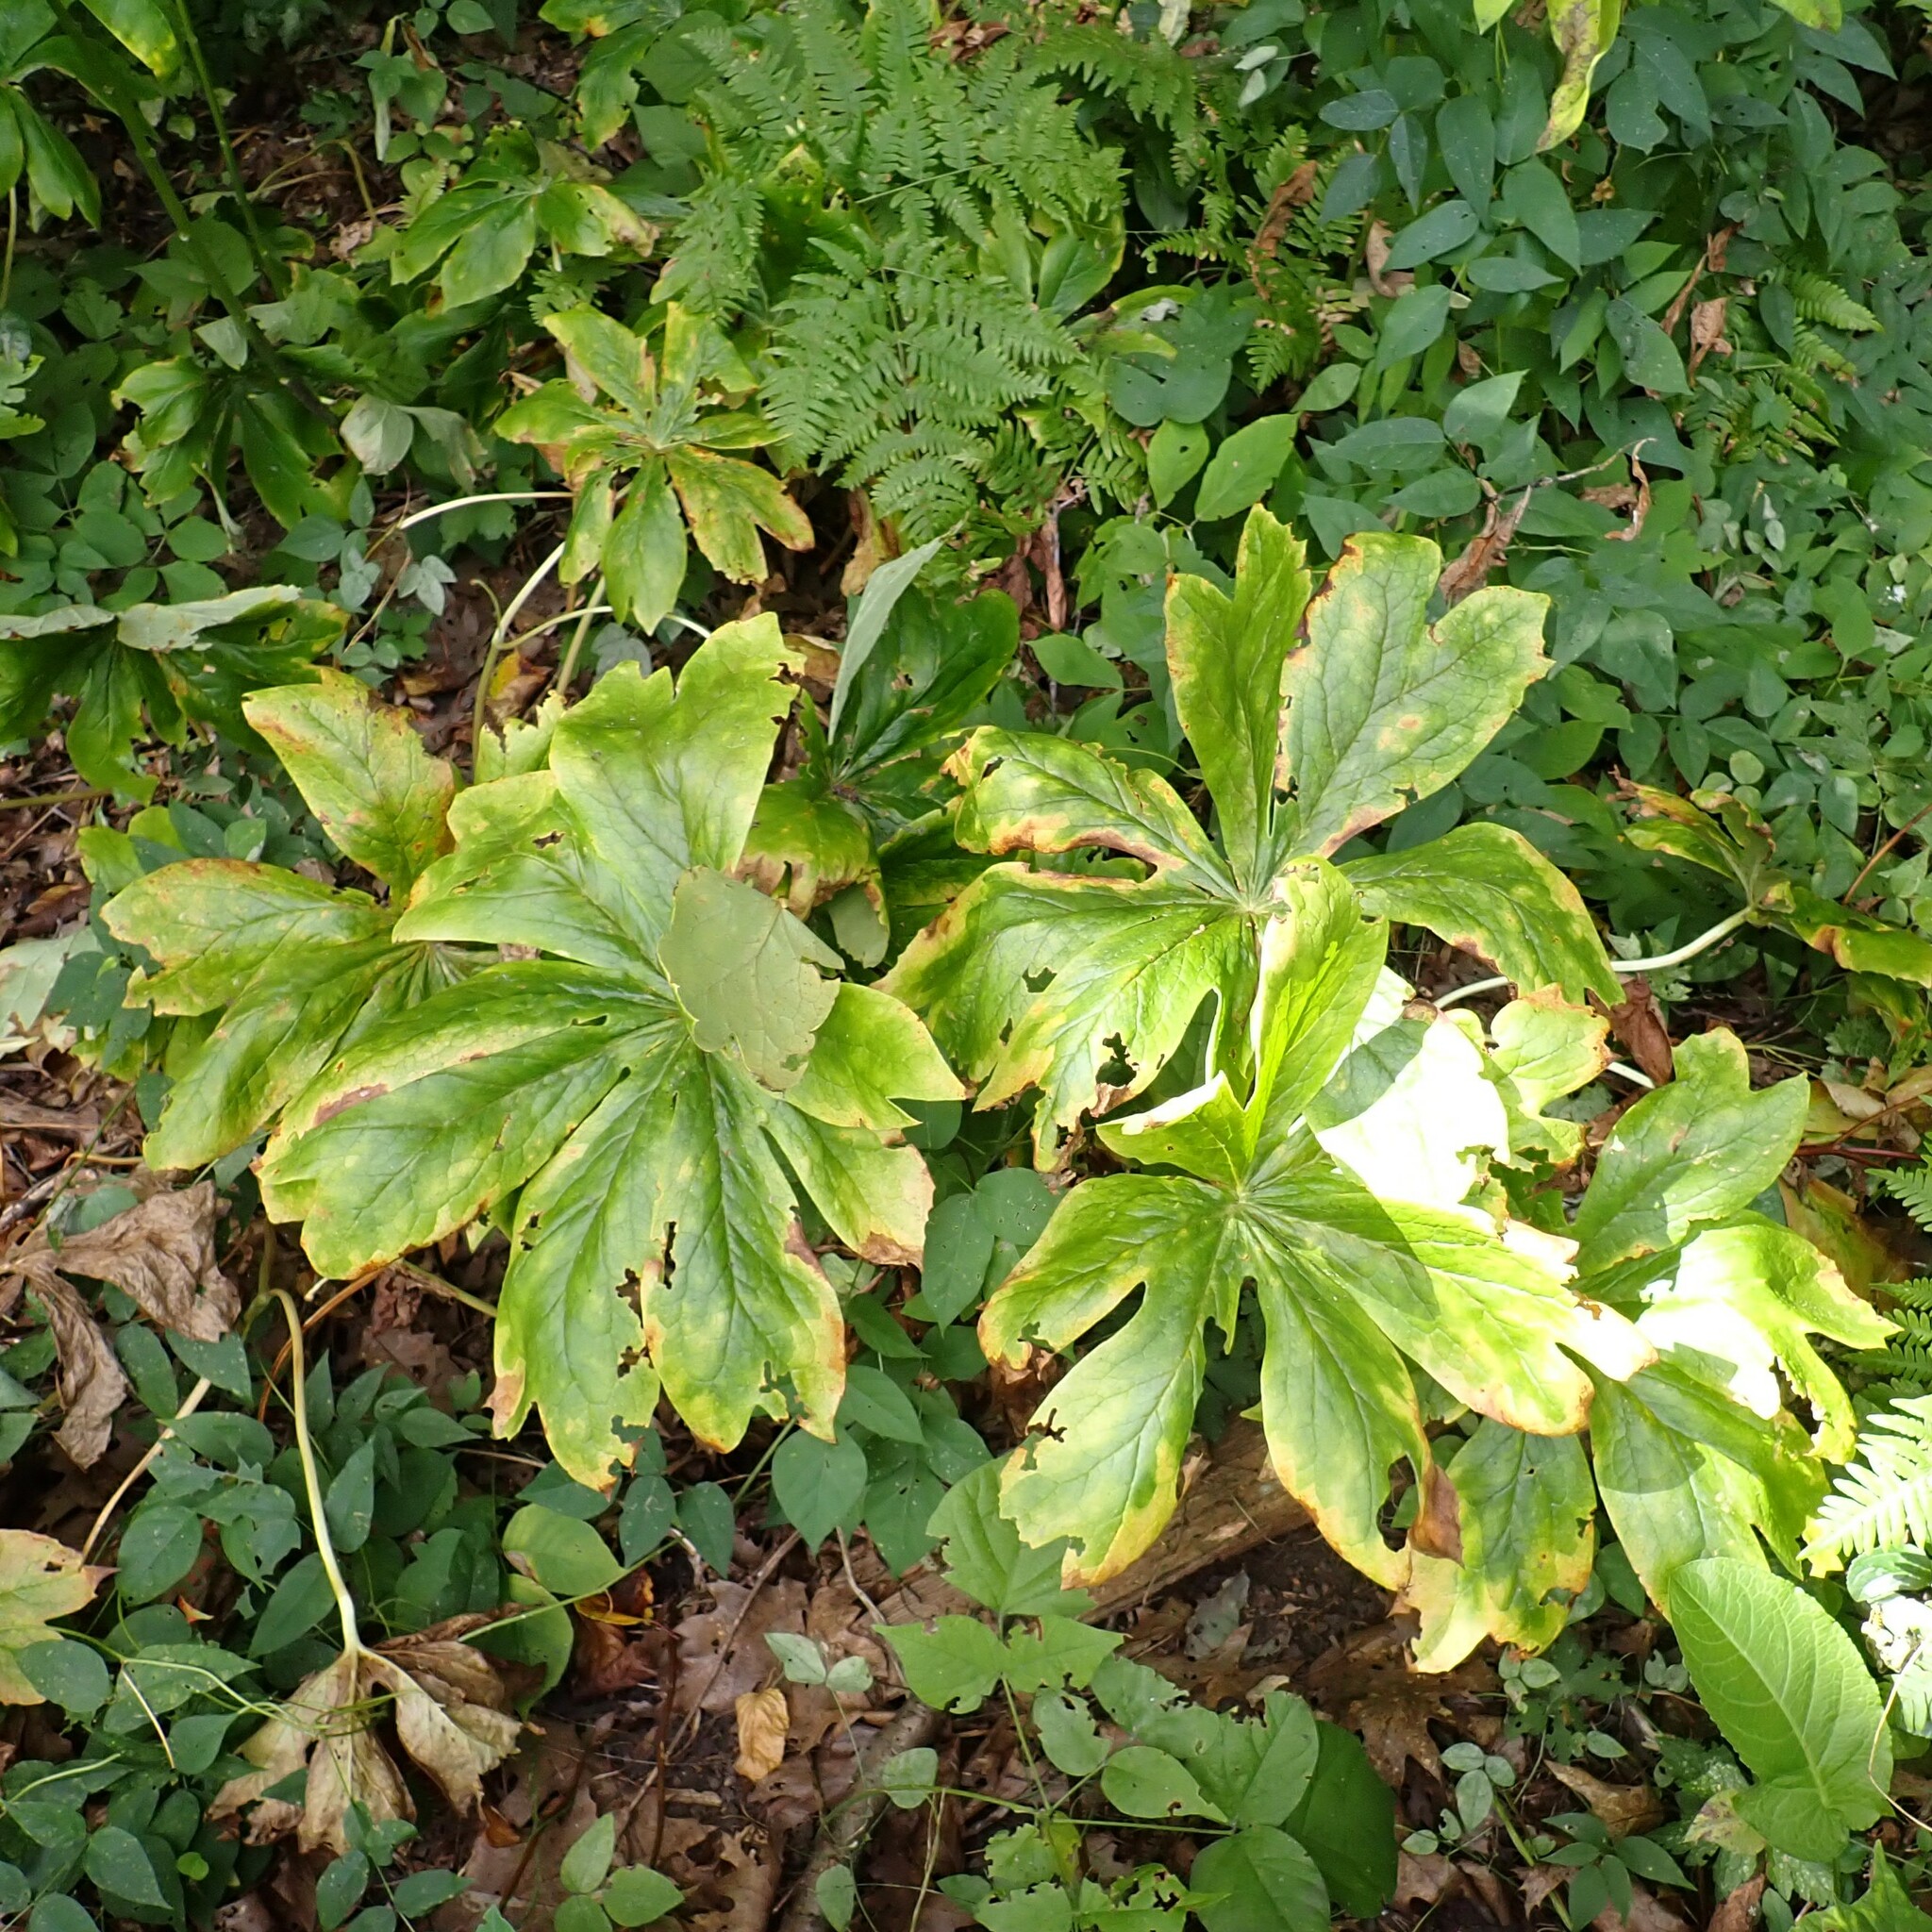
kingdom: Plantae
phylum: Tracheophyta
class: Magnoliopsida
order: Ranunculales
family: Berberidaceae
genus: Podophyllum
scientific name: Podophyllum peltatum
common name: Wild mandrake
